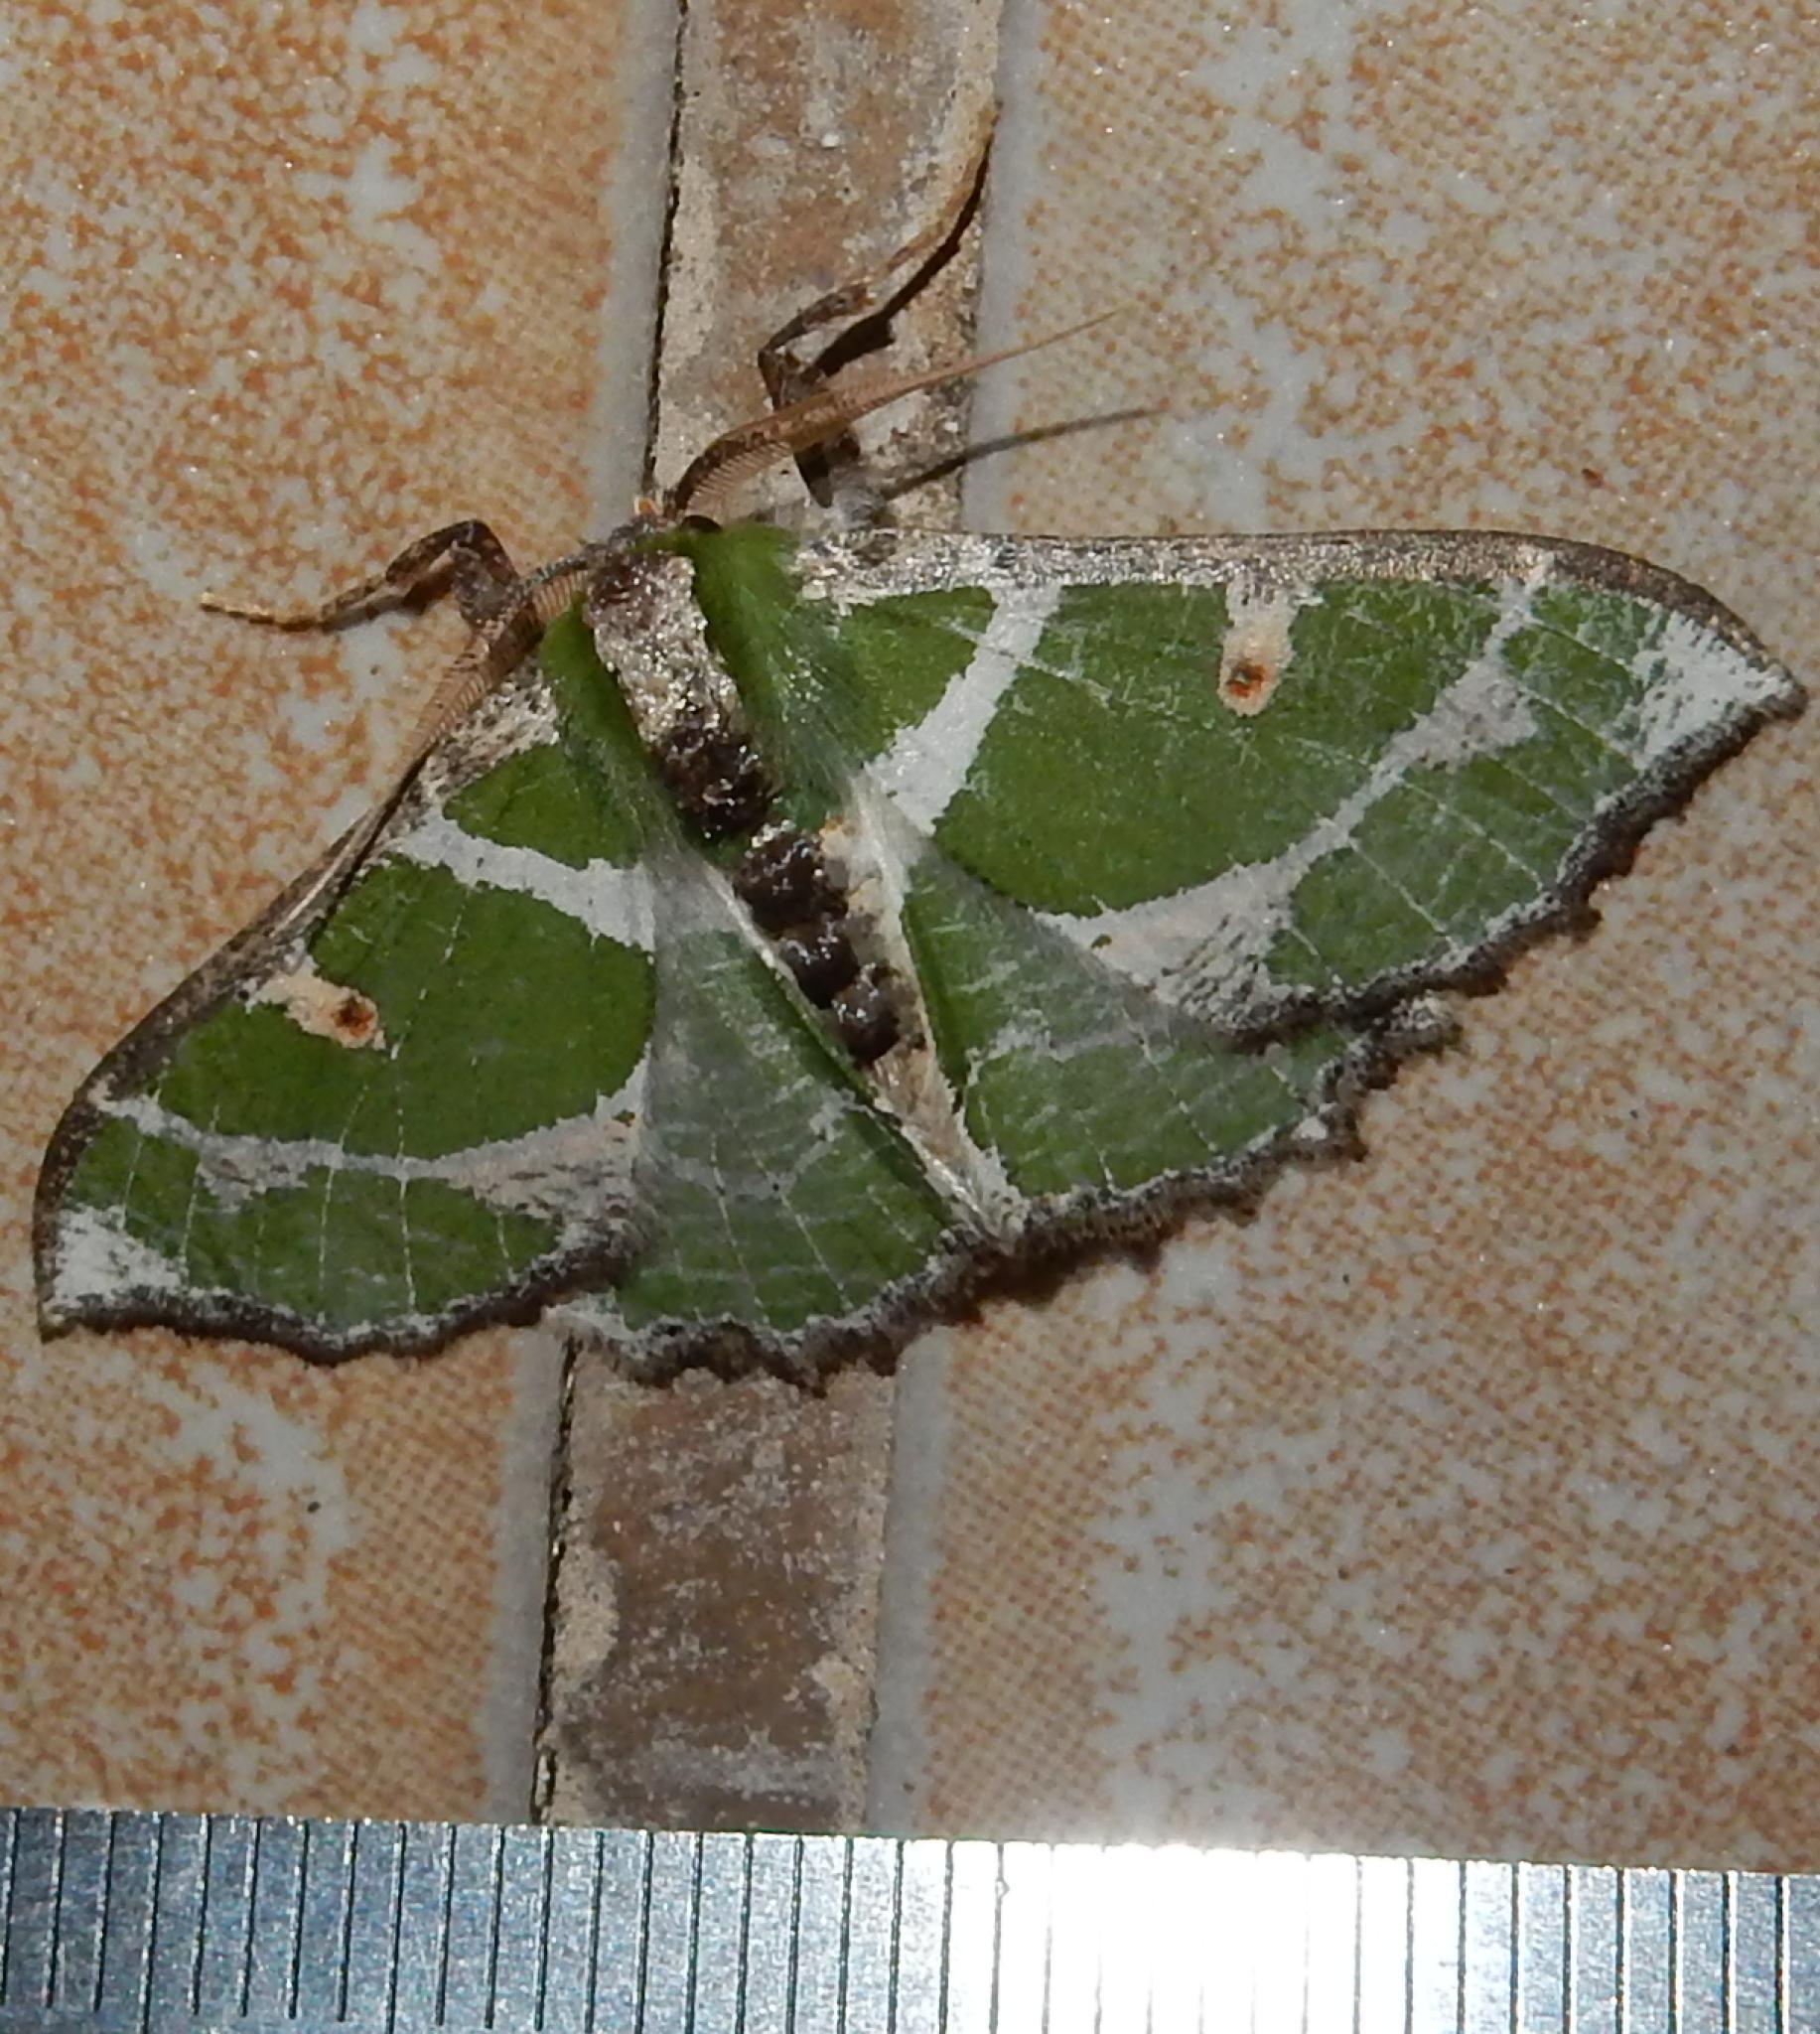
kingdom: Animalia
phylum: Arthropoda
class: Insecta
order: Lepidoptera
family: Geometridae
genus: Victoria
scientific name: Victoria albipicta
